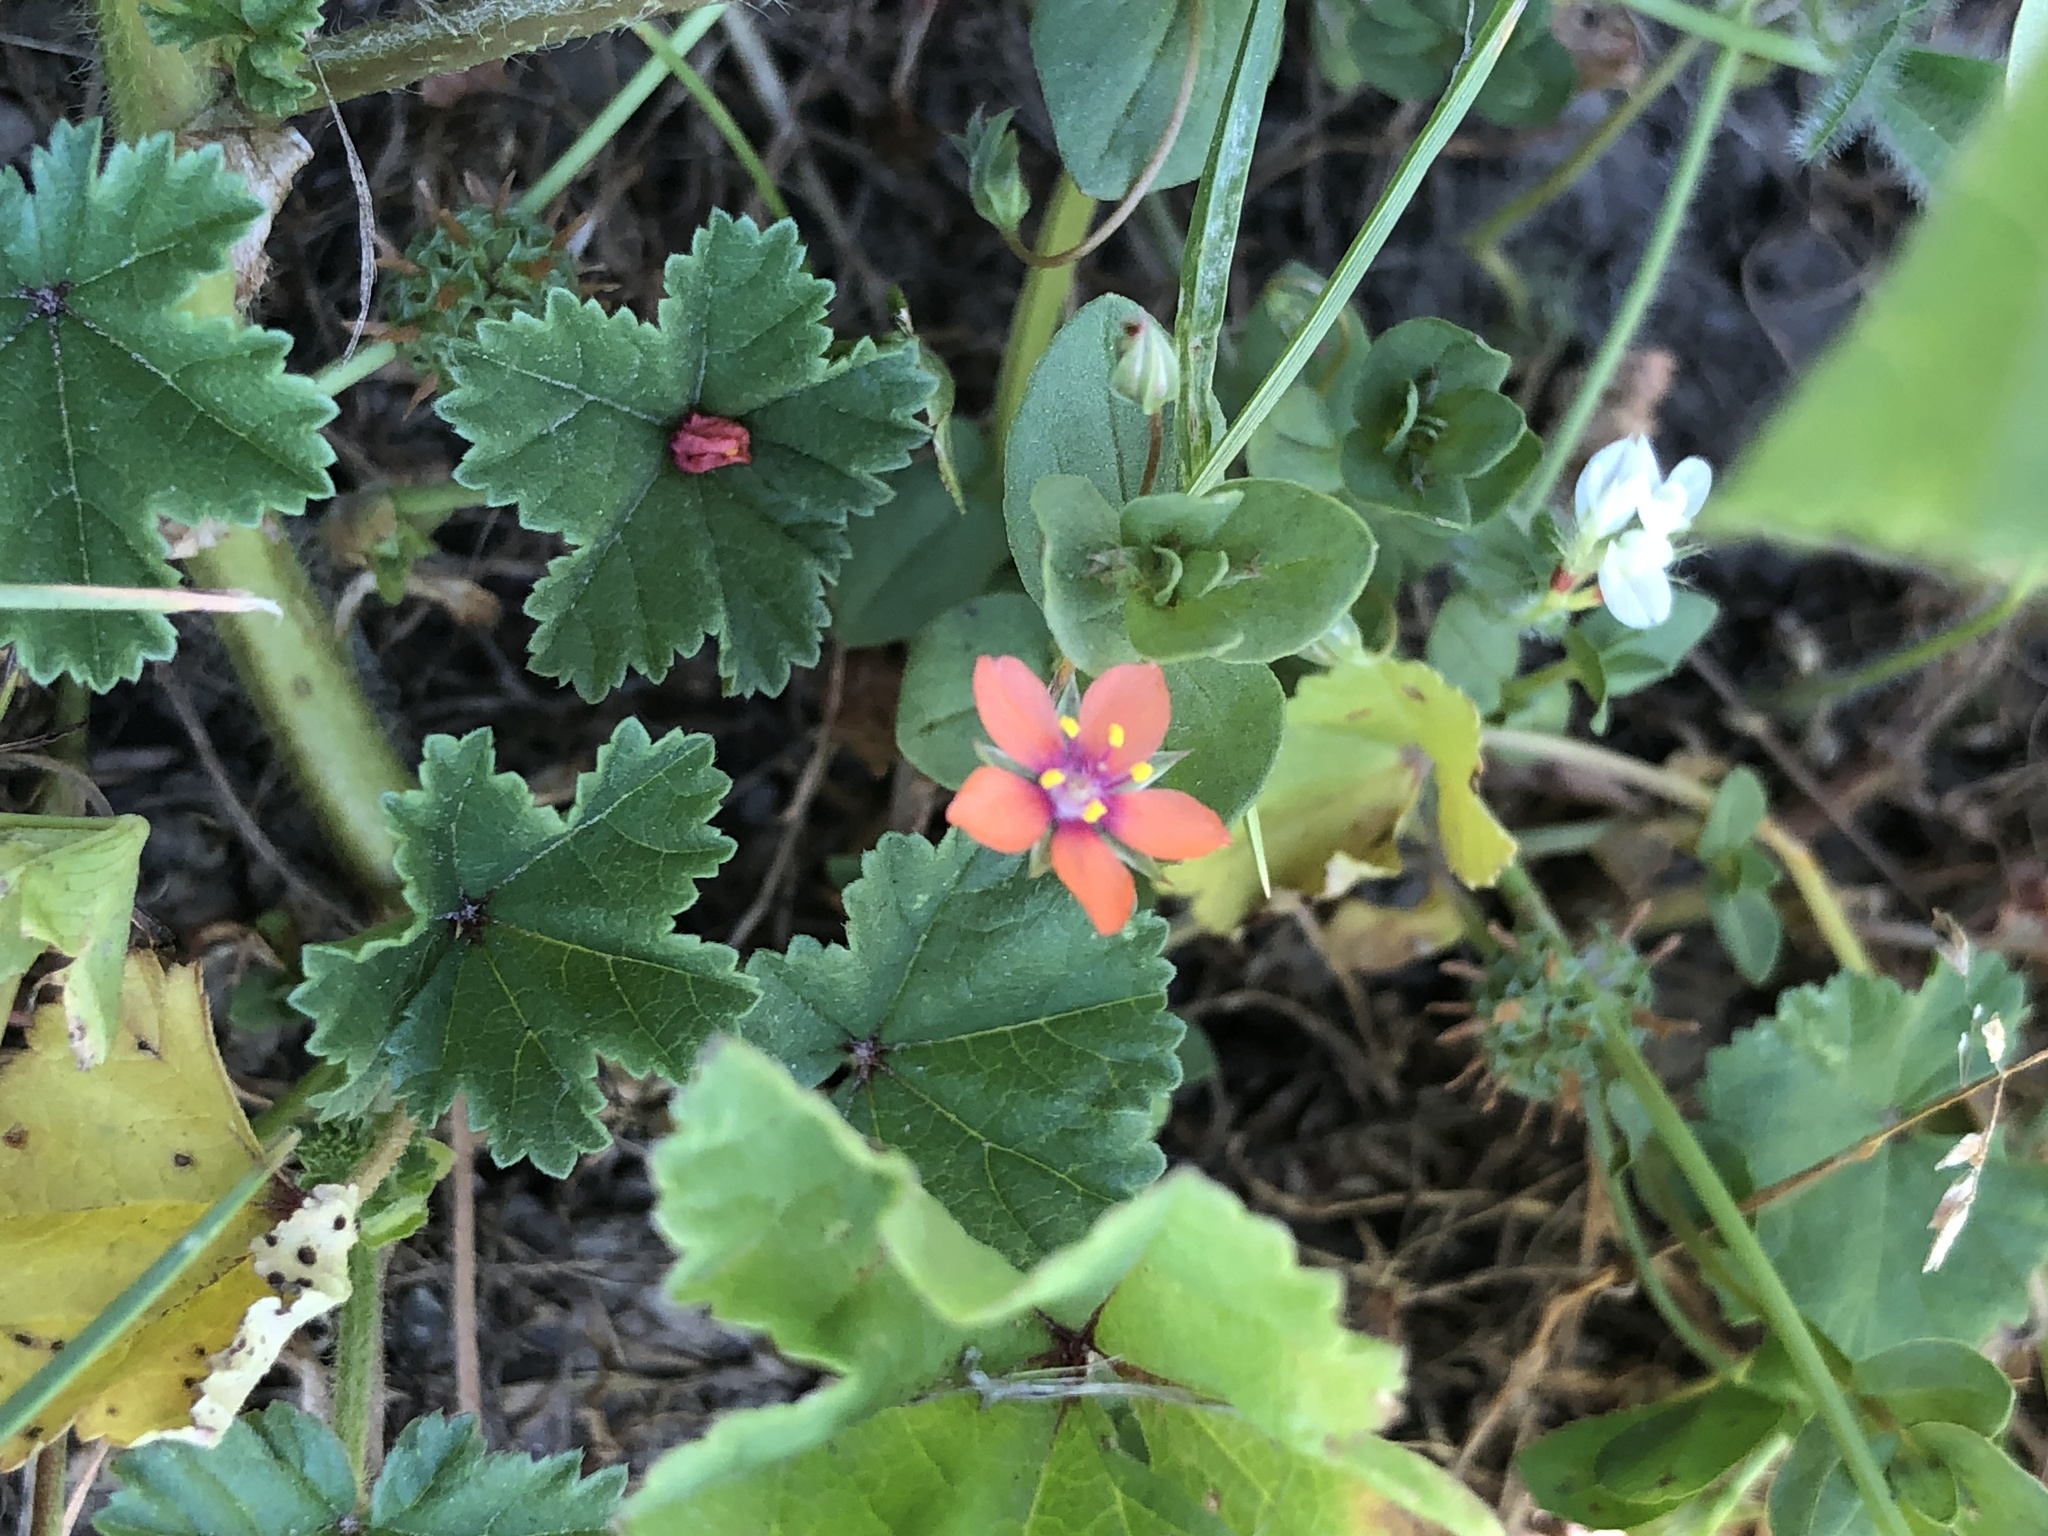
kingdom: Plantae
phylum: Tracheophyta
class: Magnoliopsida
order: Ericales
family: Primulaceae
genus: Lysimachia
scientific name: Lysimachia arvensis
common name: Scarlet pimpernel
